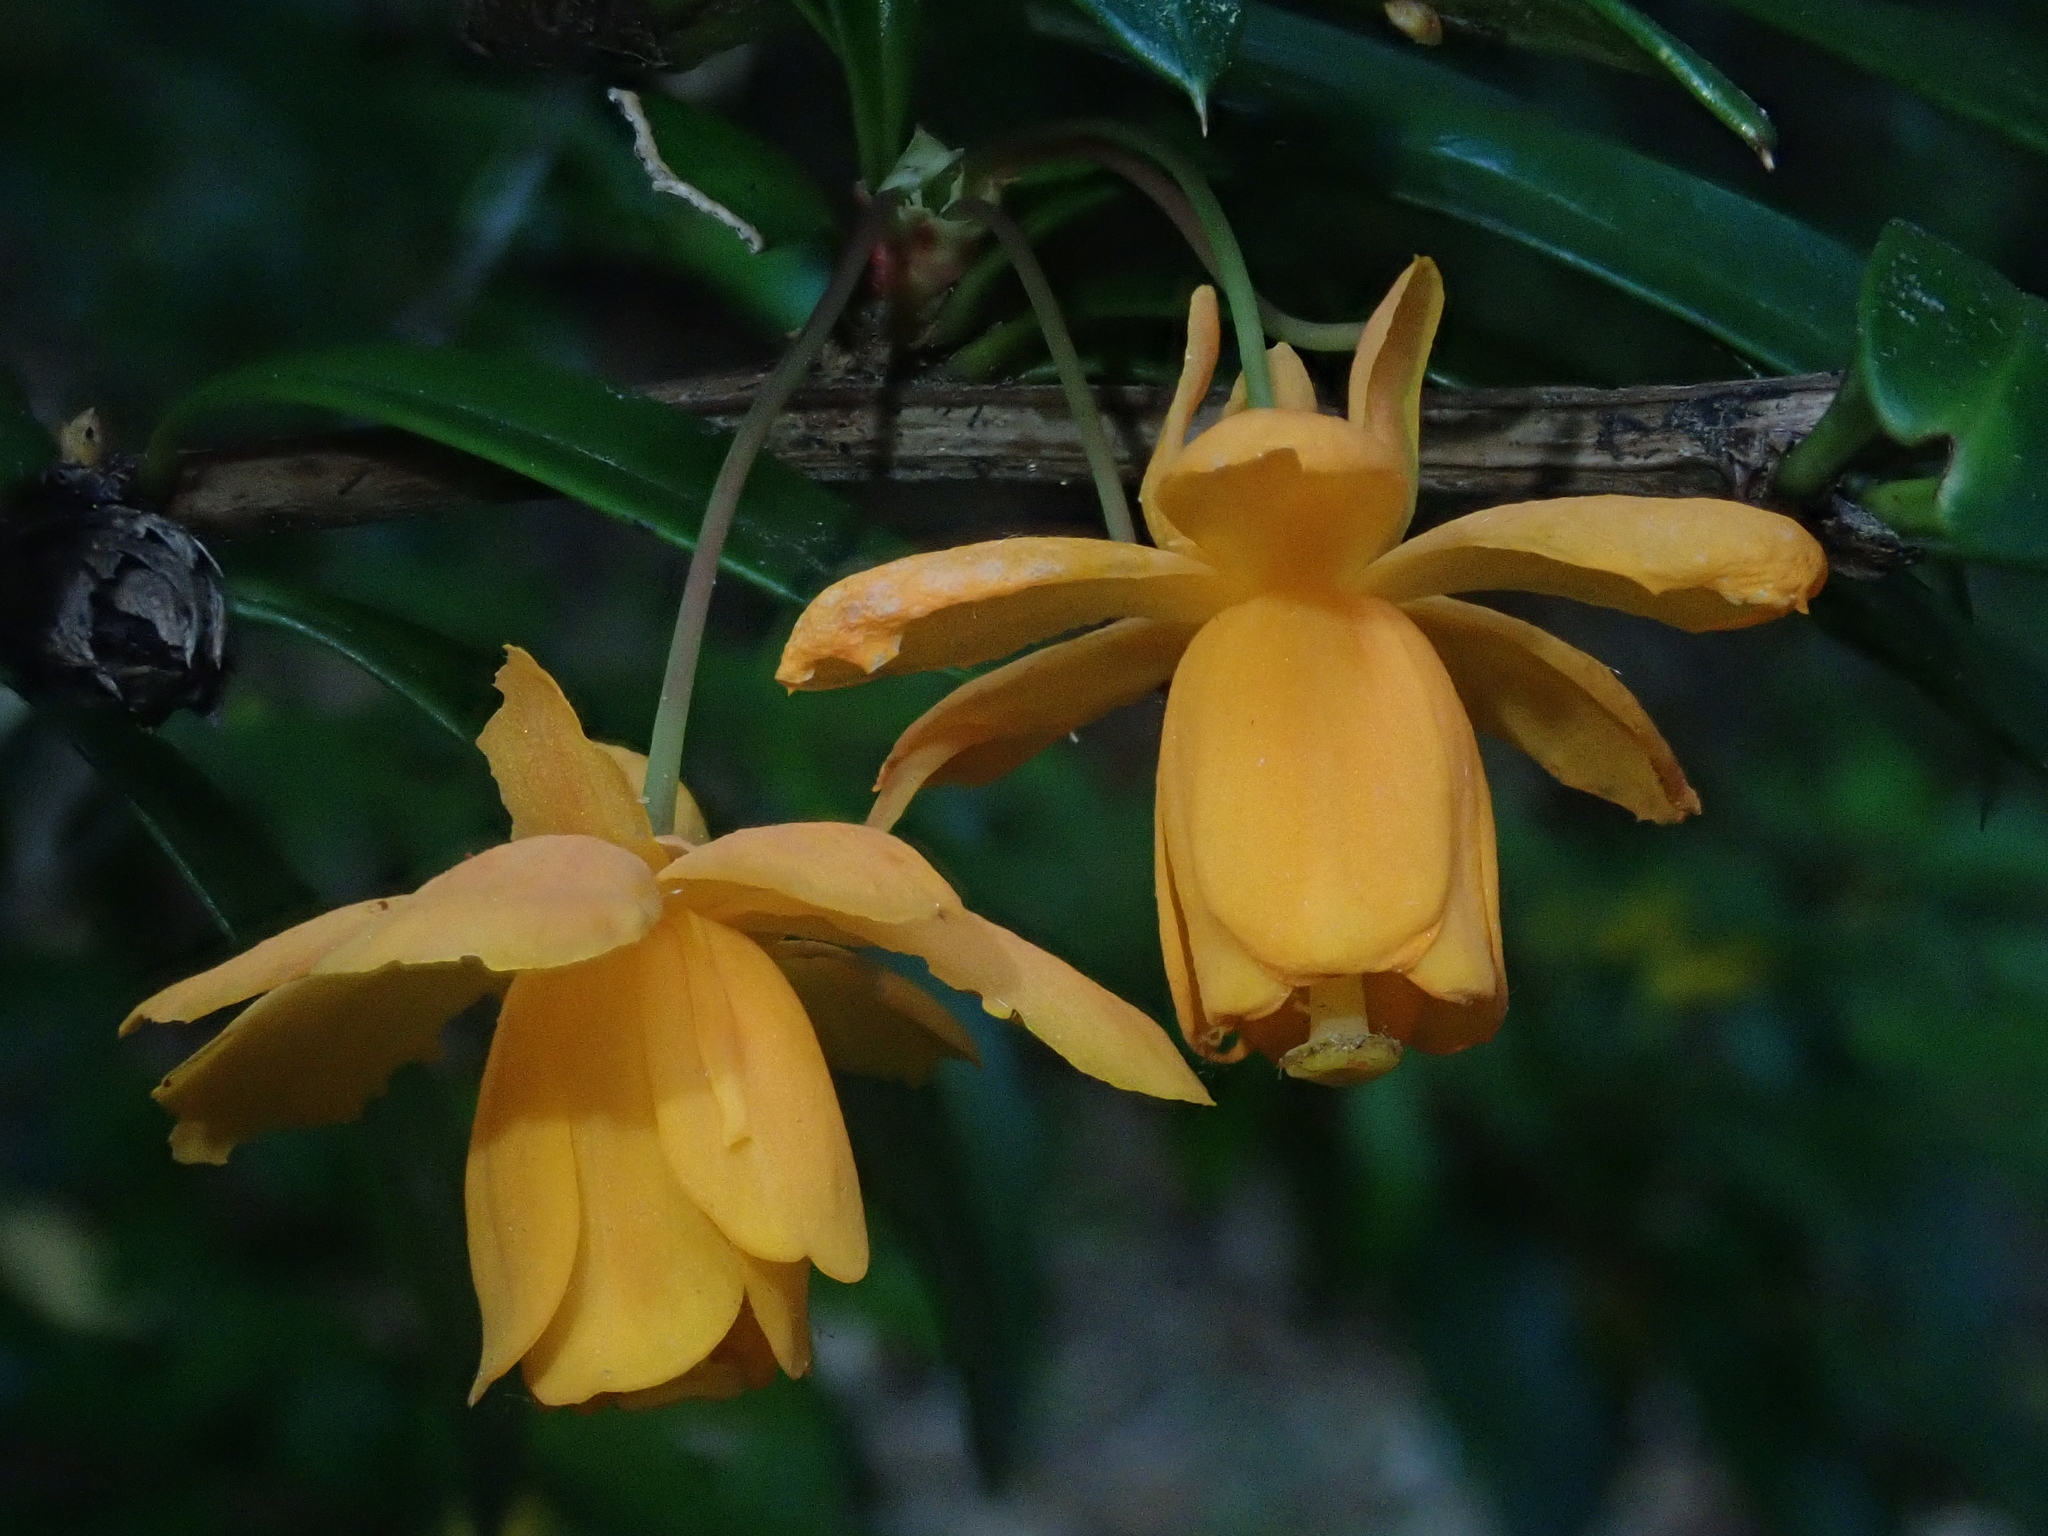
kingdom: Plantae
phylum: Tracheophyta
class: Magnoliopsida
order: Ranunculales
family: Berberidaceae
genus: Berberis
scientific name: Berberis trigona
